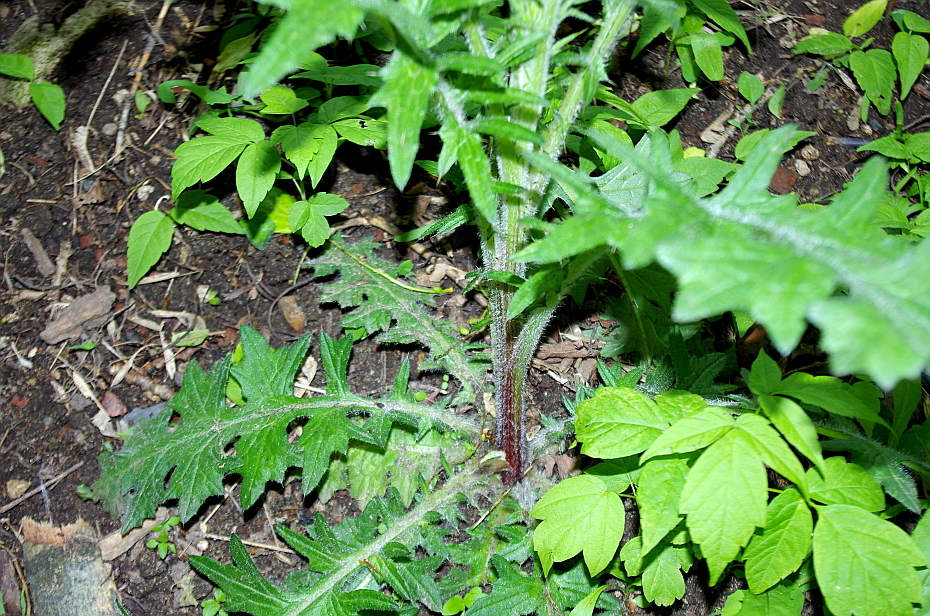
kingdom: Plantae
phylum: Tracheophyta
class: Magnoliopsida
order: Asterales
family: Asteraceae
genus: Cirsium
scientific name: Cirsium vulgare
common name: Bull thistle
